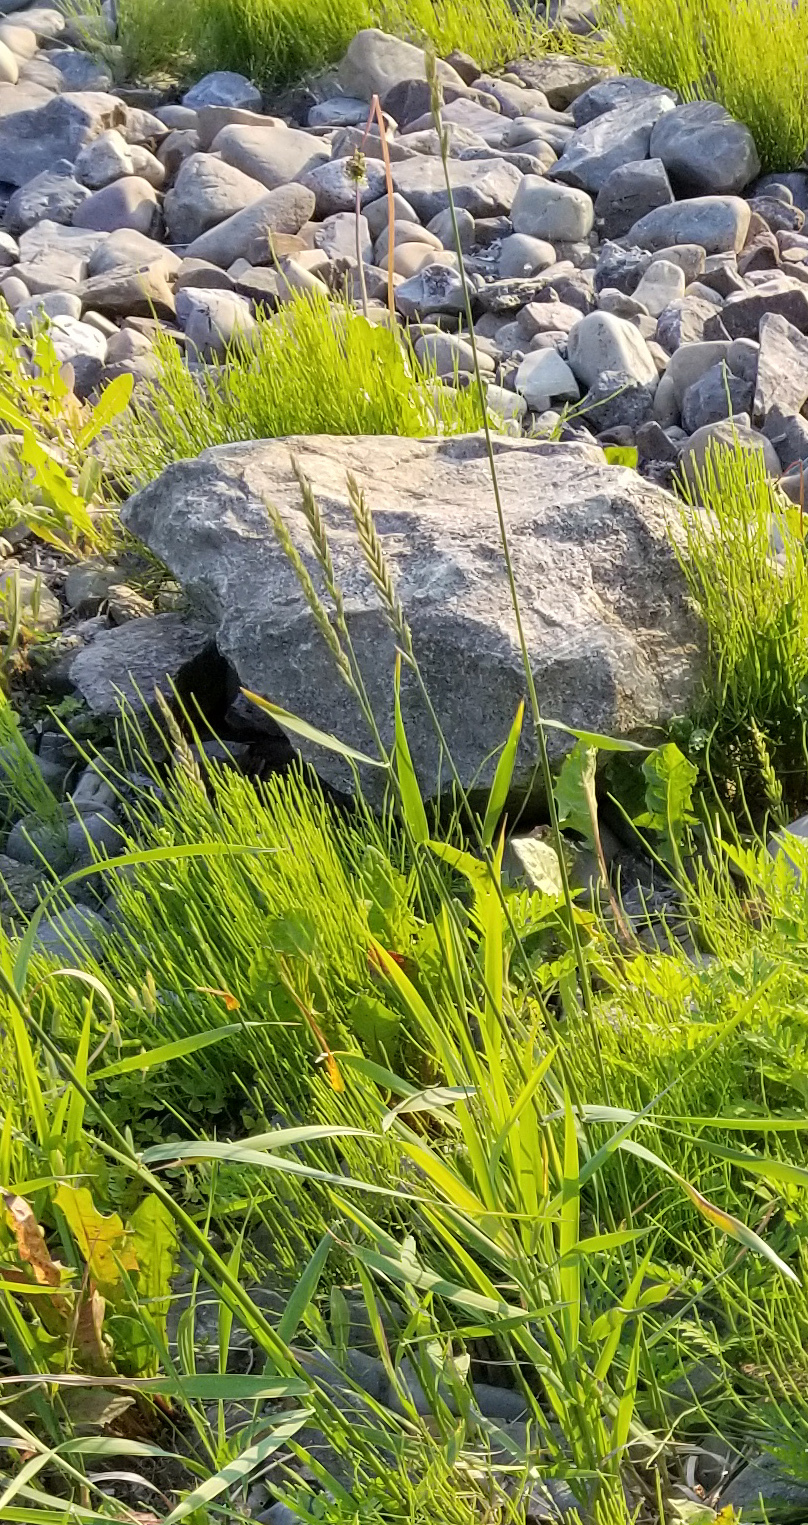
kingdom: Plantae
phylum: Tracheophyta
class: Liliopsida
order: Poales
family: Poaceae
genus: Elymus
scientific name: Elymus repens
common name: Quackgrass
